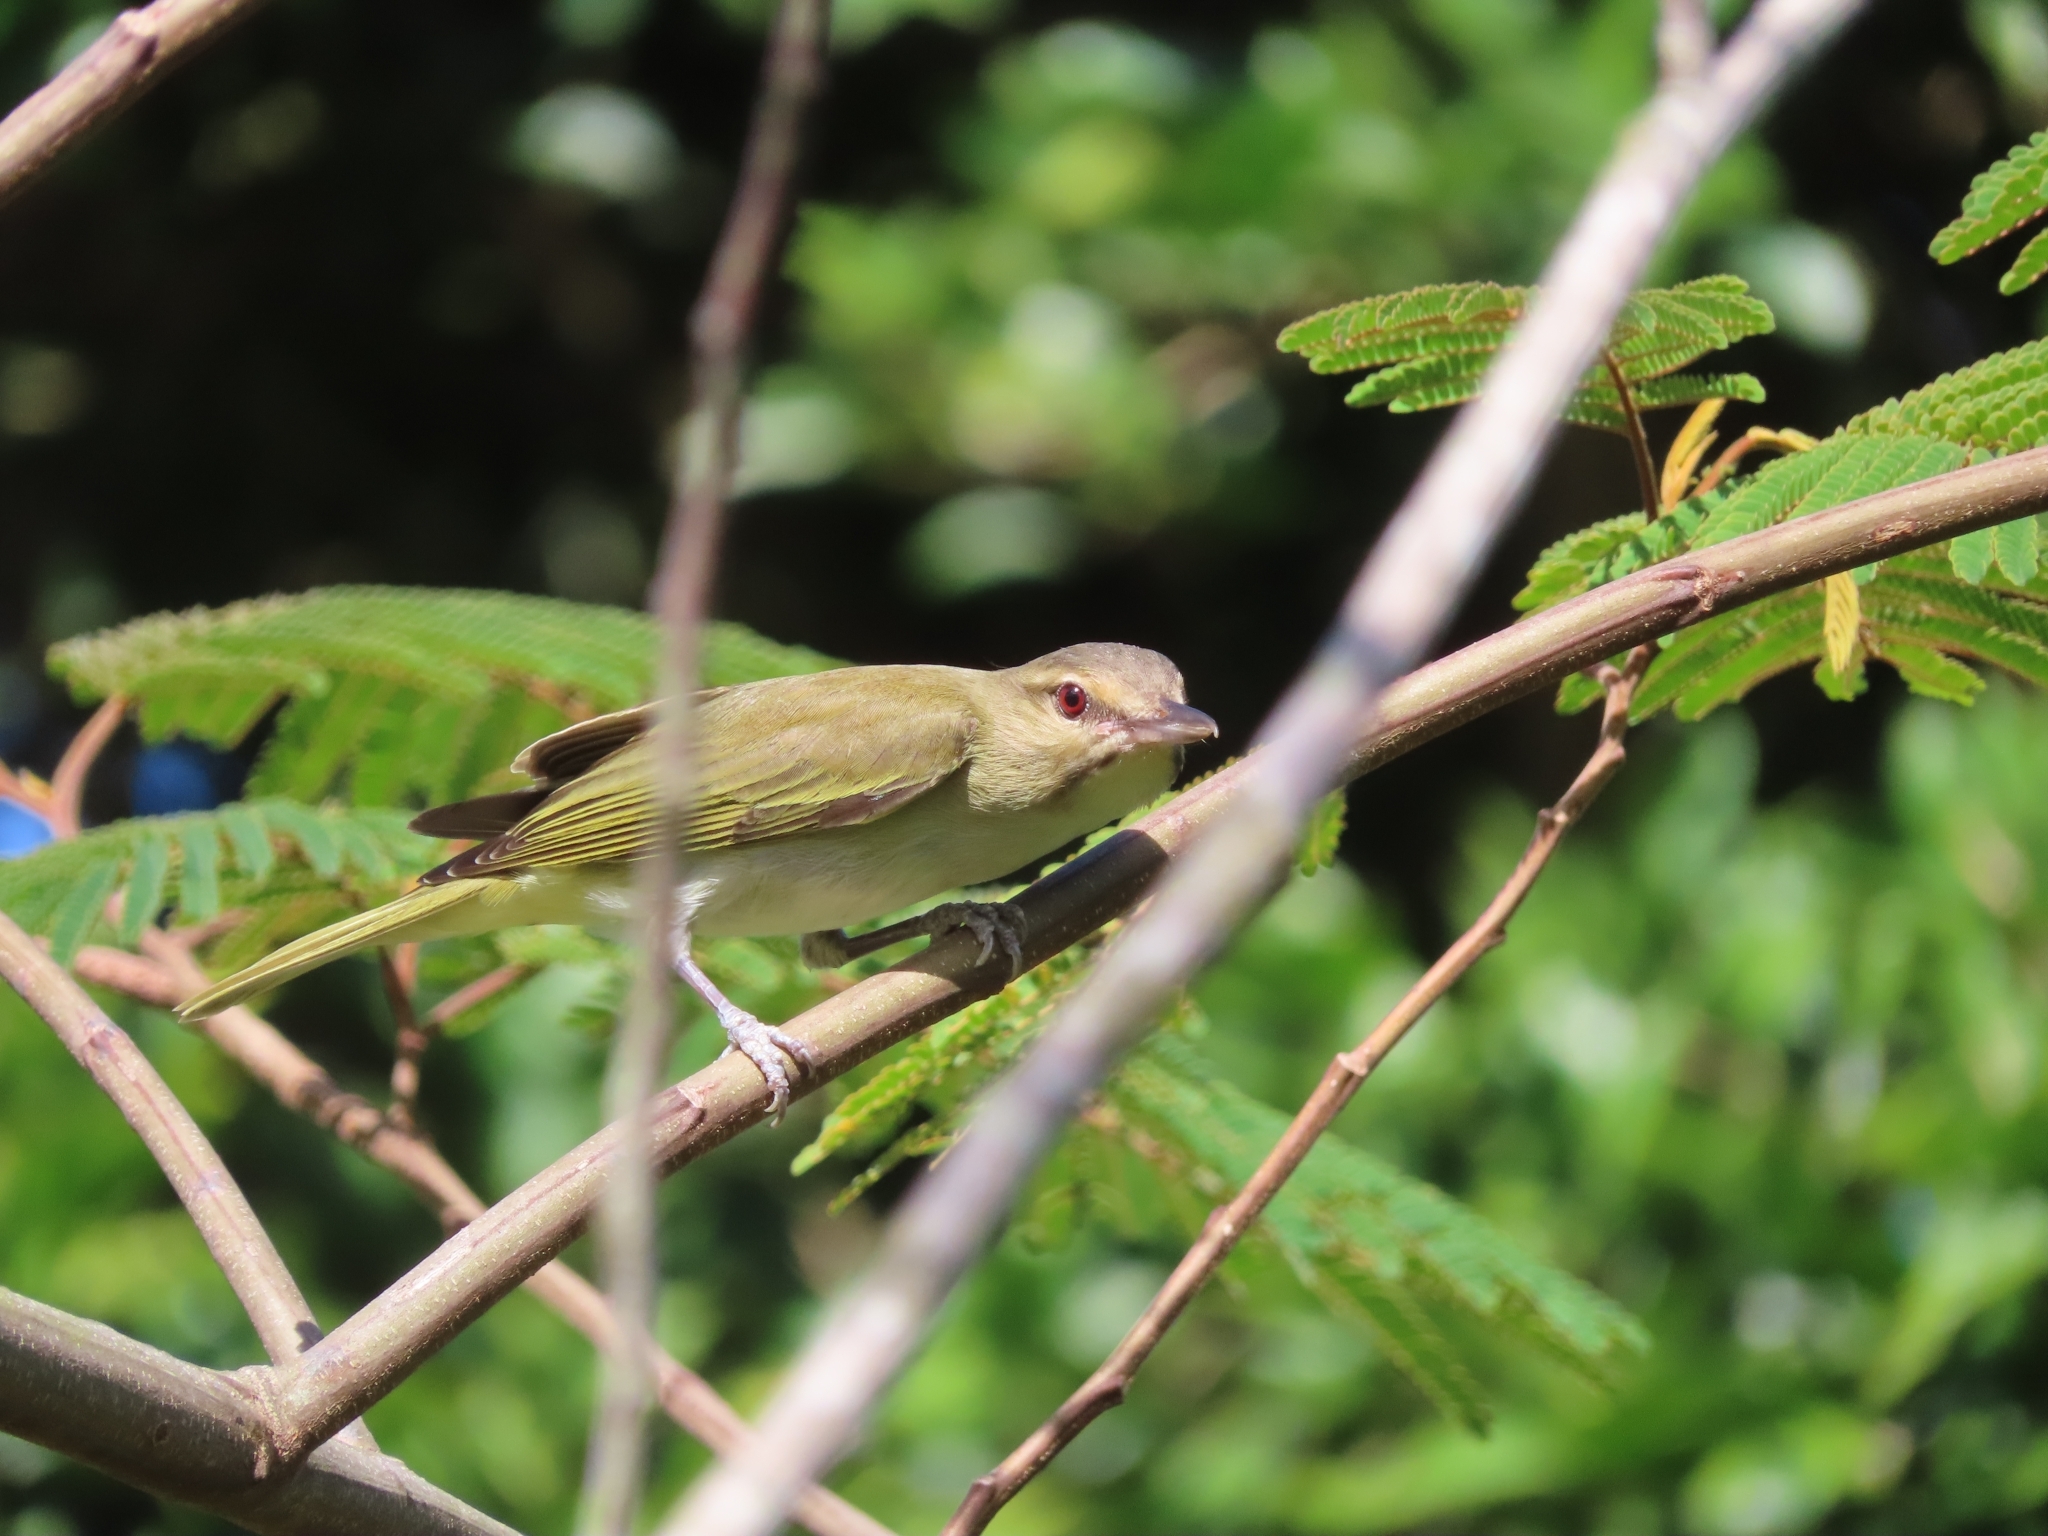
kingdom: Animalia
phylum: Chordata
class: Aves
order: Passeriformes
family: Vireonidae
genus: Vireo
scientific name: Vireo altiloquus
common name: Black-whiskered vireo
